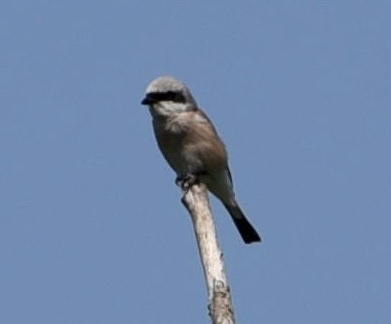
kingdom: Animalia
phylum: Chordata
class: Aves
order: Passeriformes
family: Laniidae
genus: Lanius
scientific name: Lanius collurio
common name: Red-backed shrike
